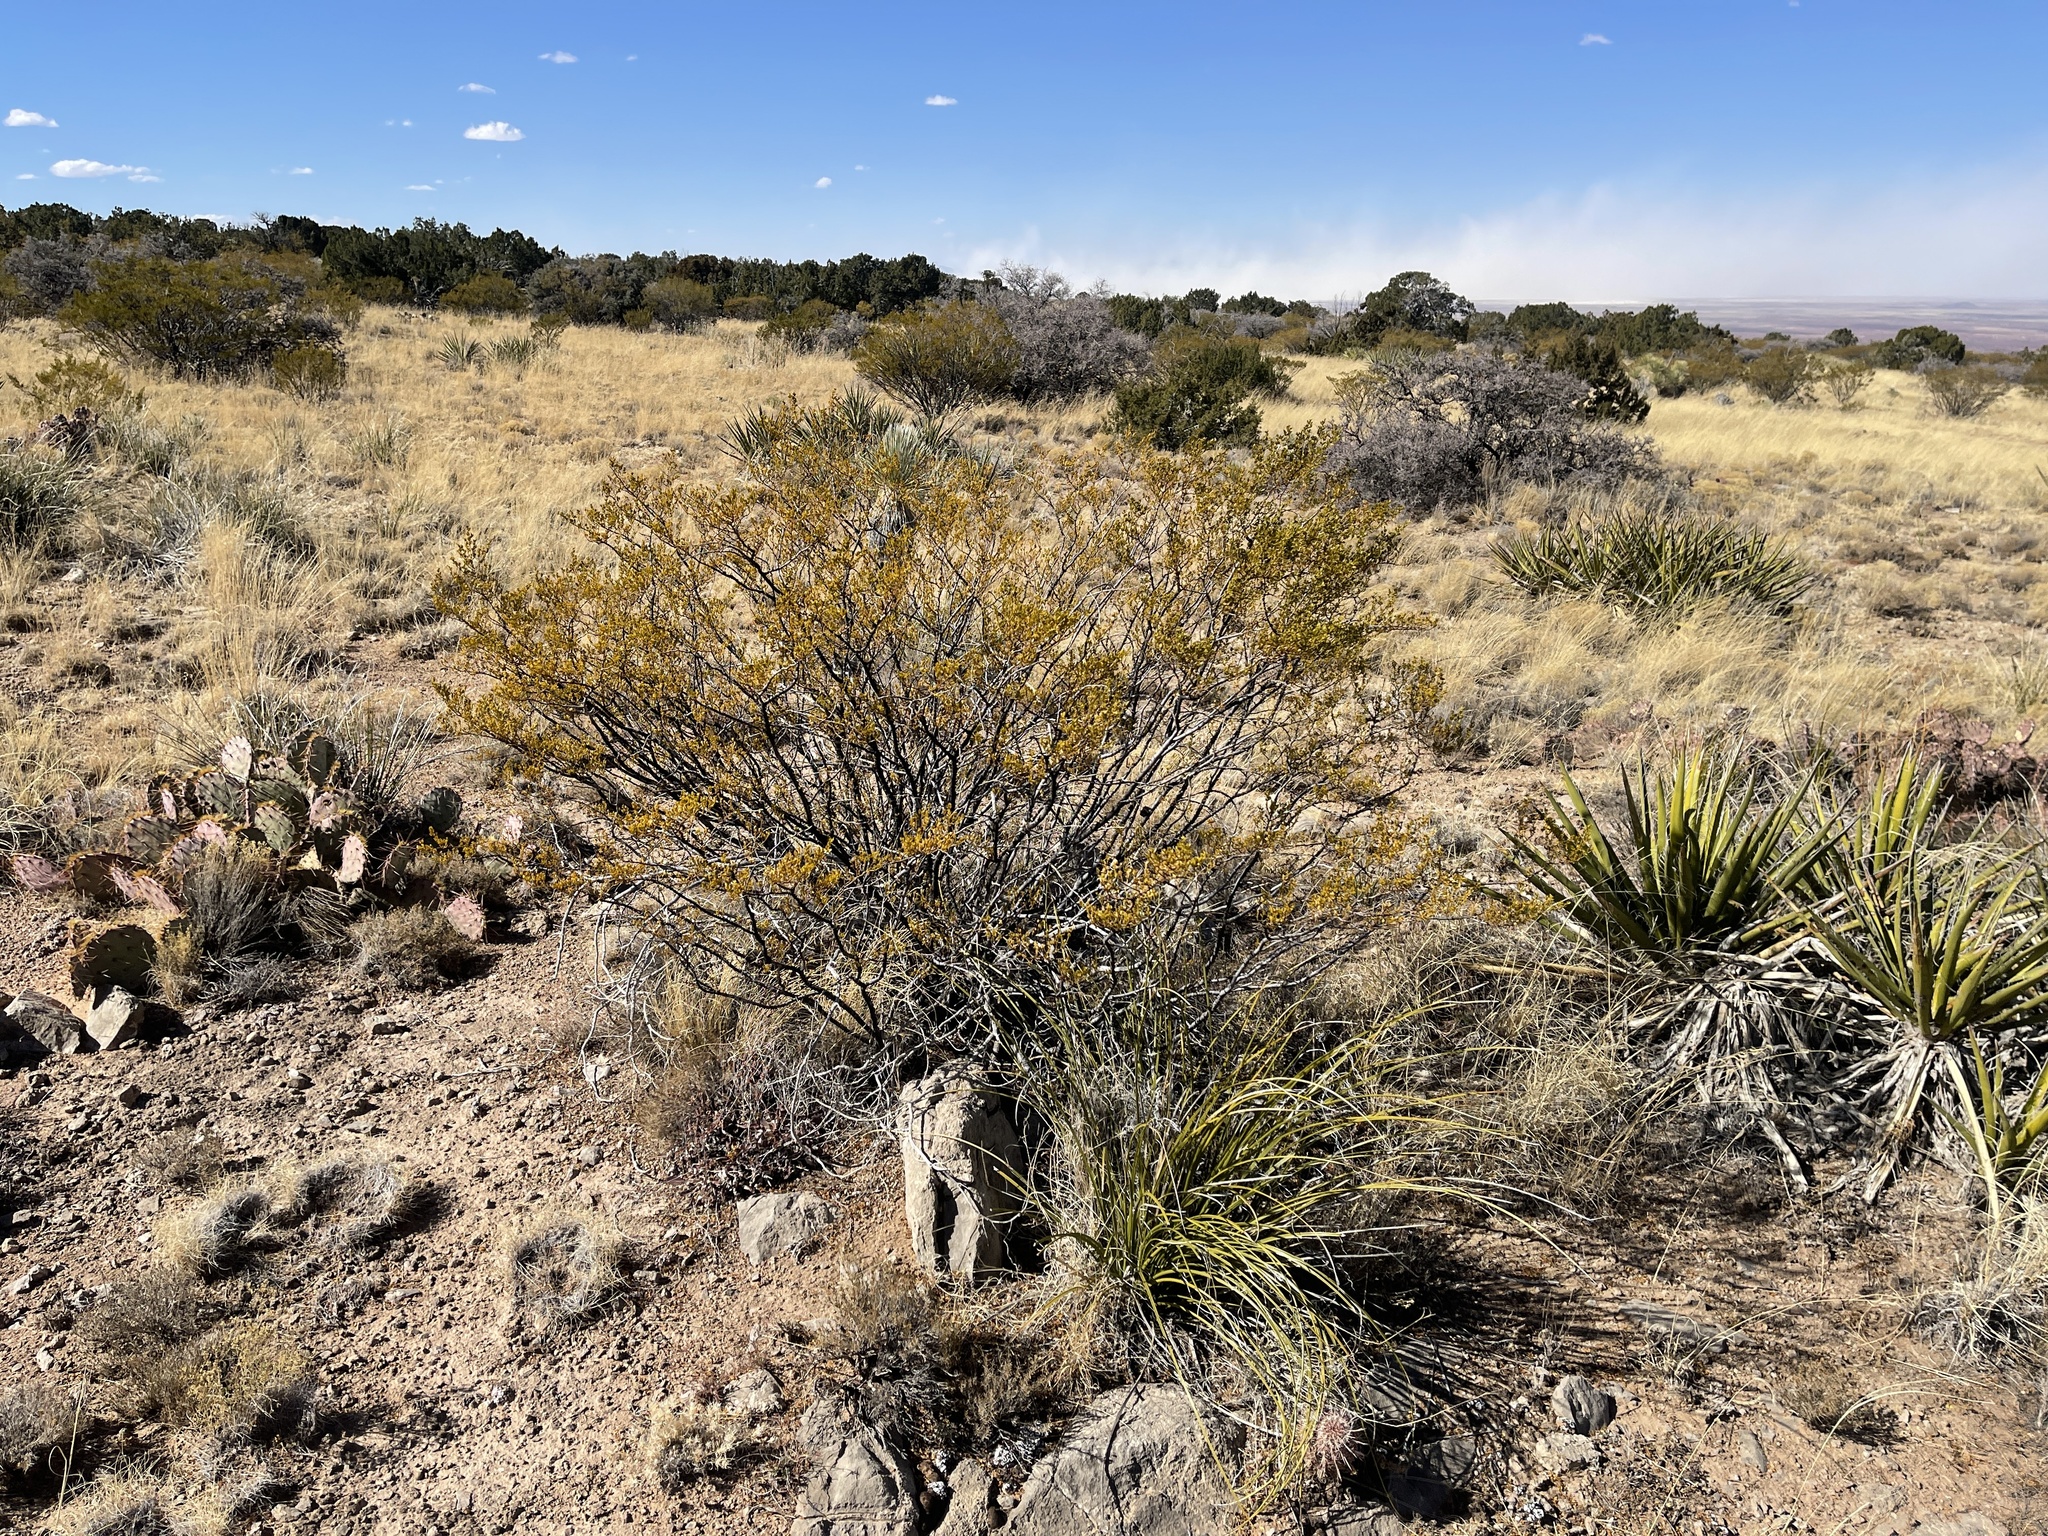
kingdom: Plantae
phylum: Tracheophyta
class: Magnoliopsida
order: Zygophyllales
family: Zygophyllaceae
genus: Larrea
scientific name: Larrea tridentata
